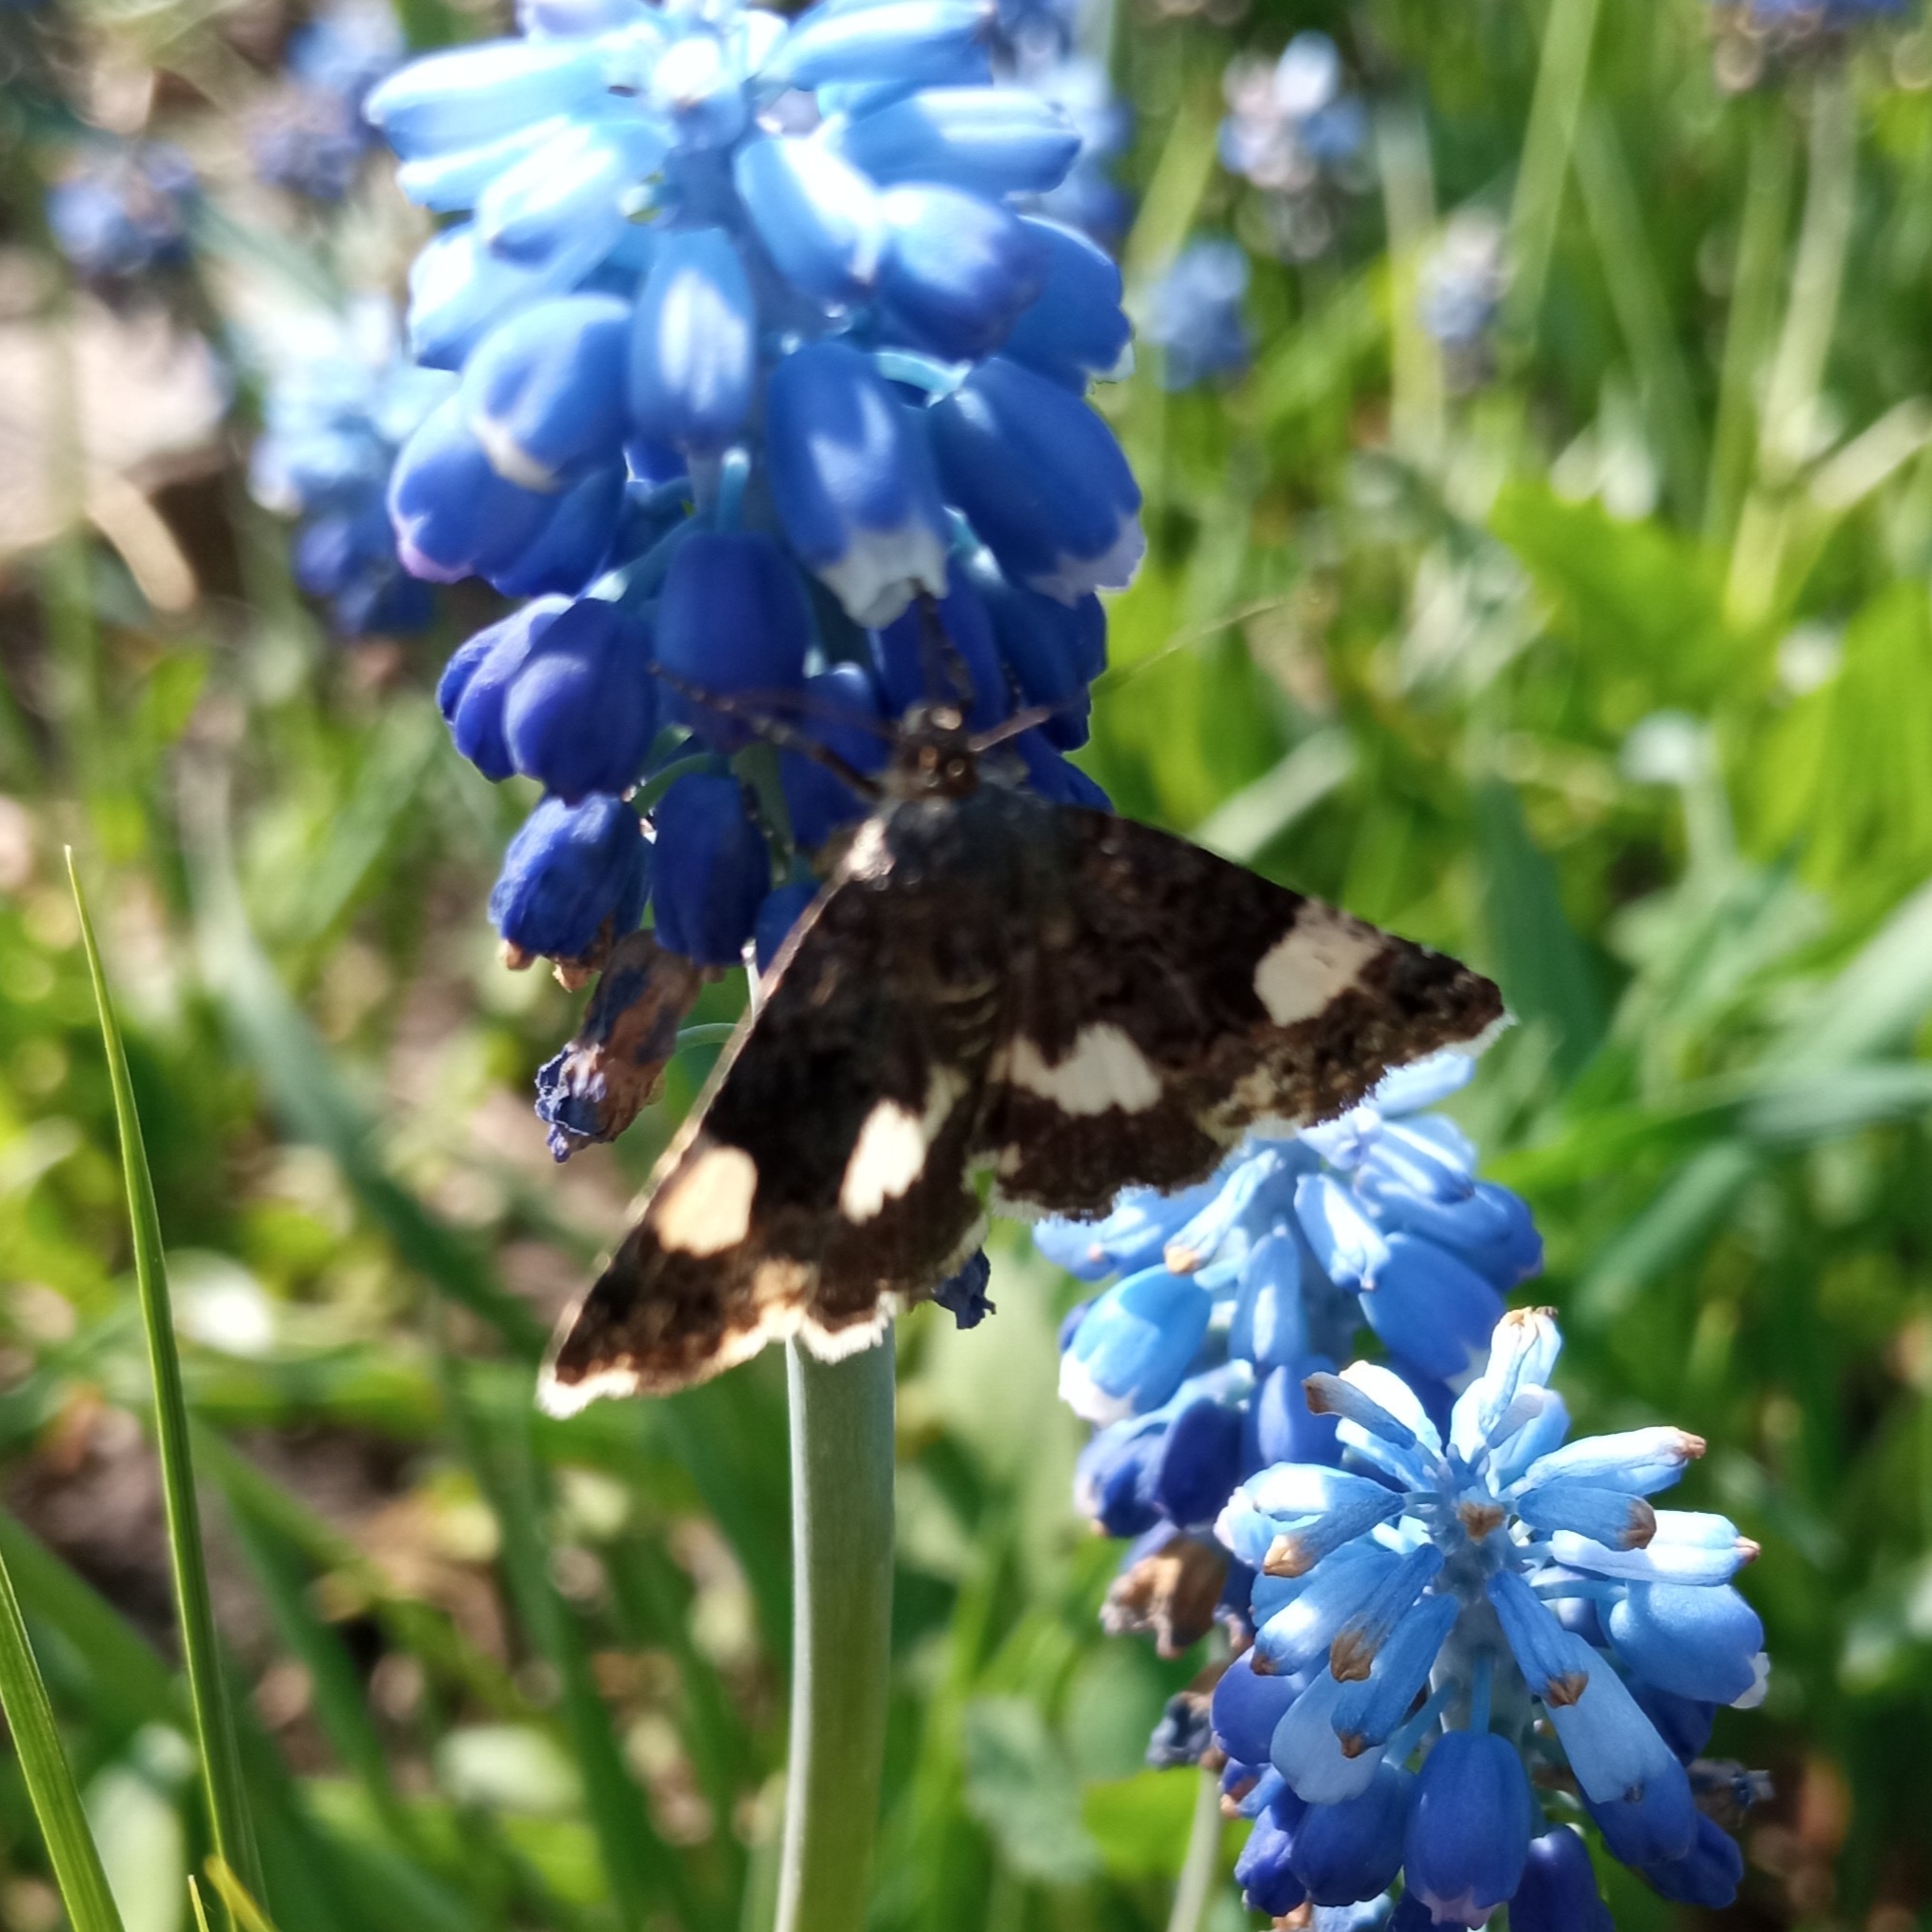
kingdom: Animalia
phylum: Arthropoda
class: Insecta
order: Lepidoptera
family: Erebidae
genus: Tyta
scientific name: Tyta luctuosa
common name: Four-spotted
